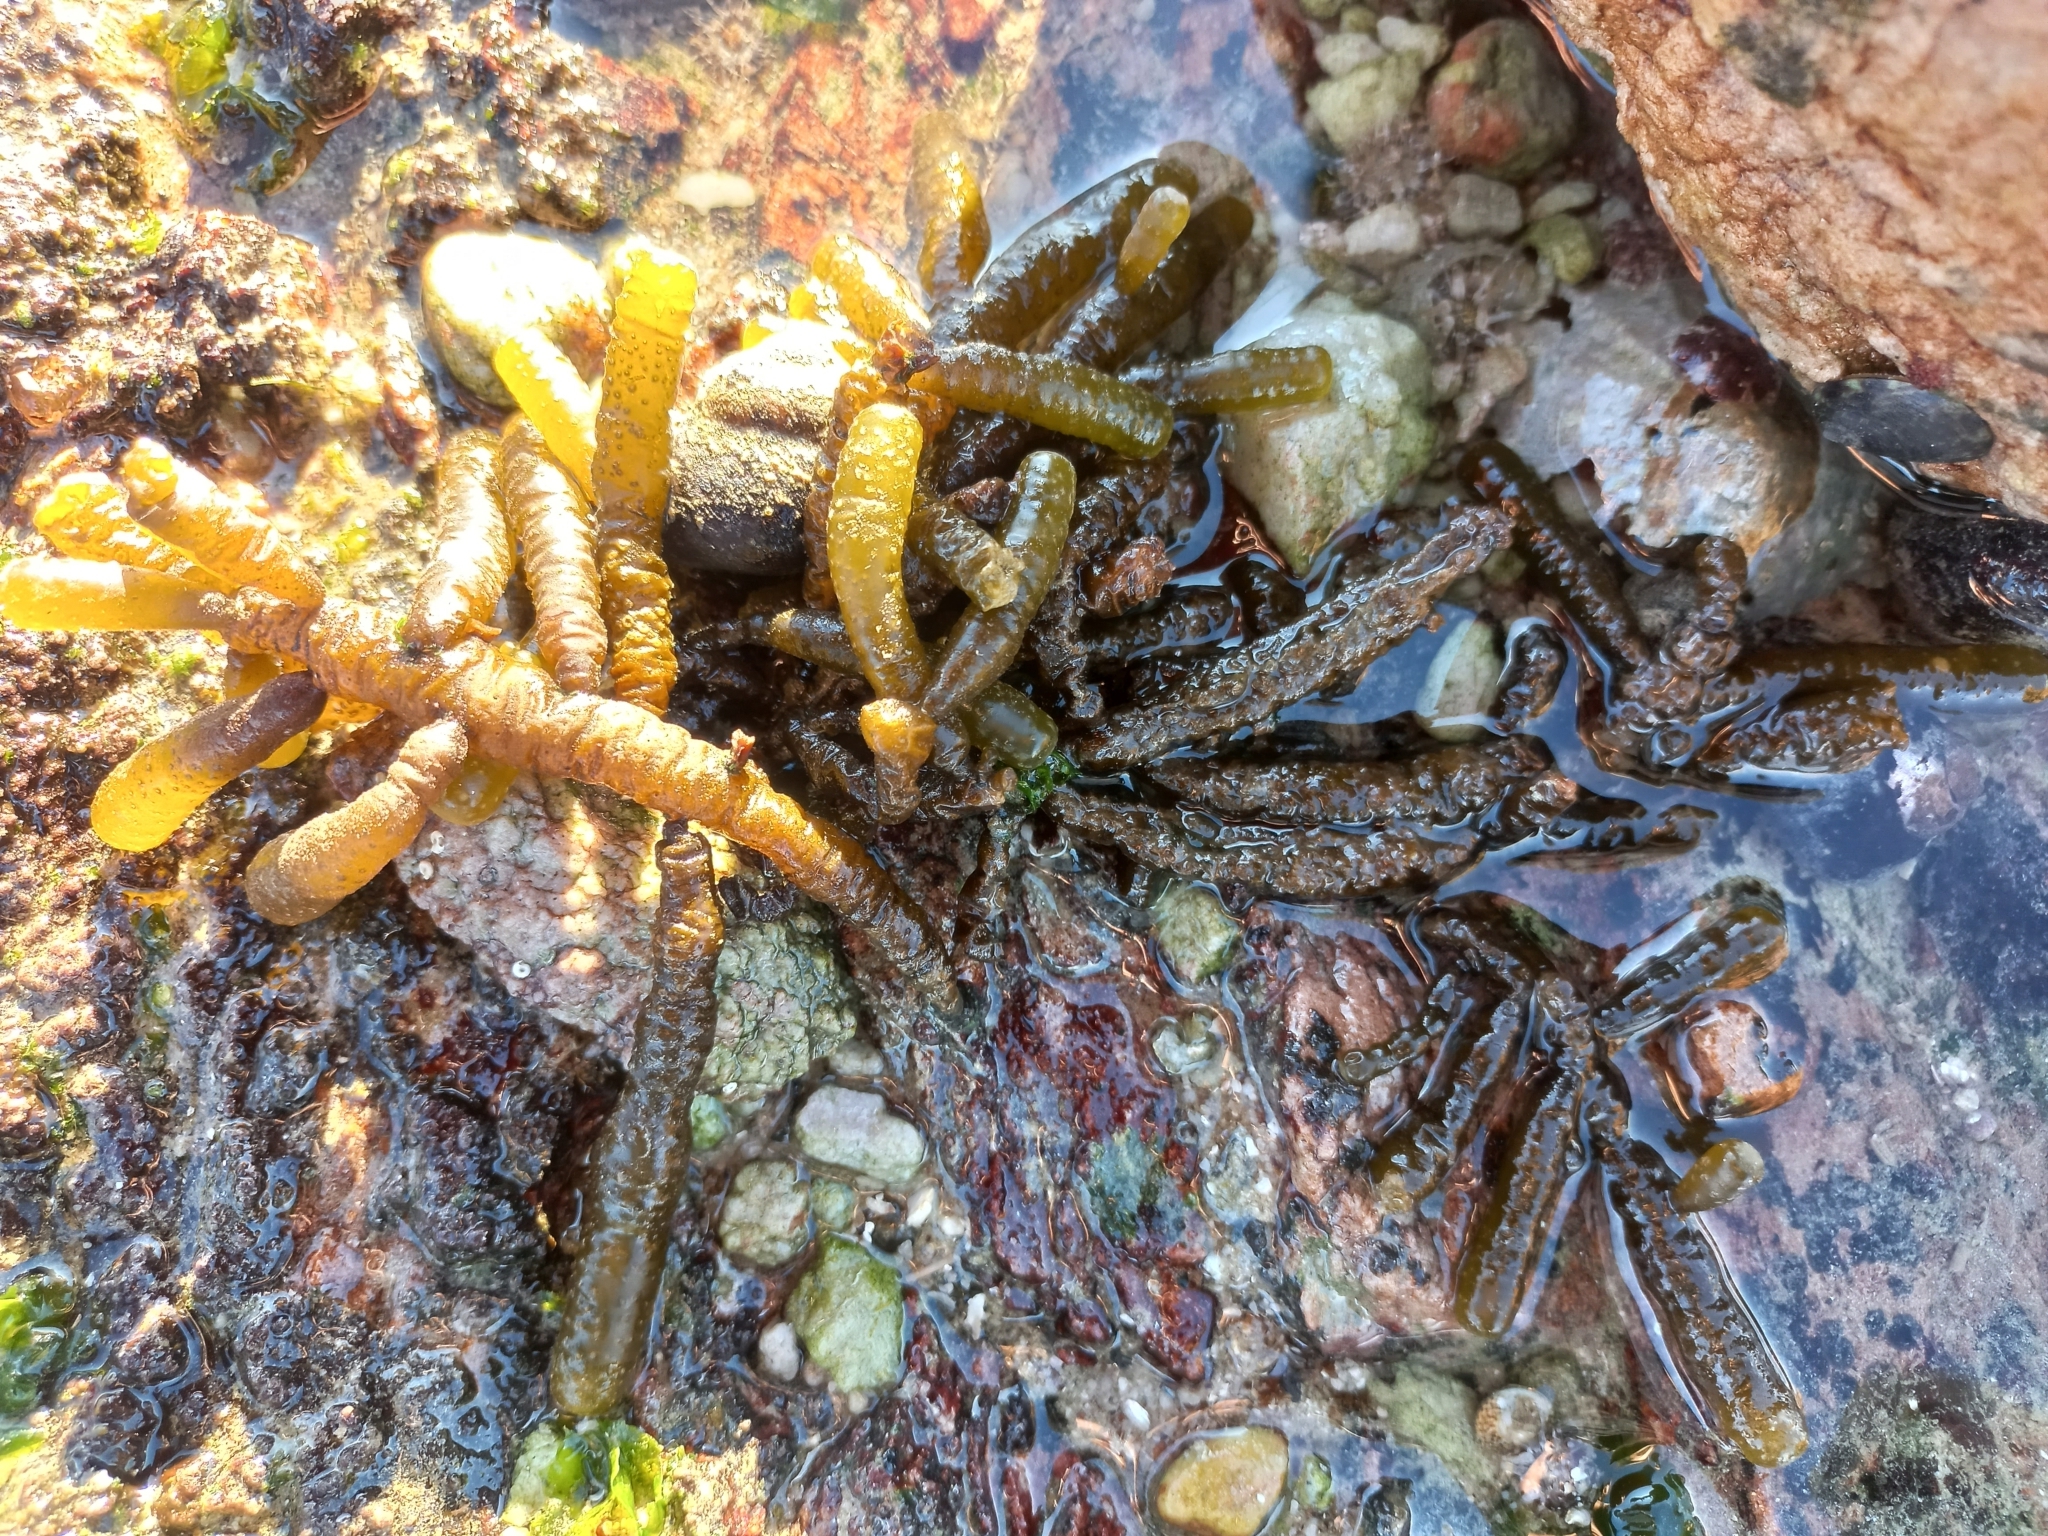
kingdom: Chromista
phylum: Ochrophyta
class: Phaeophyceae
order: Scytothamnales
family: Splachnidiaceae
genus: Splachnidium
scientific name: Splachnidium rugosum
